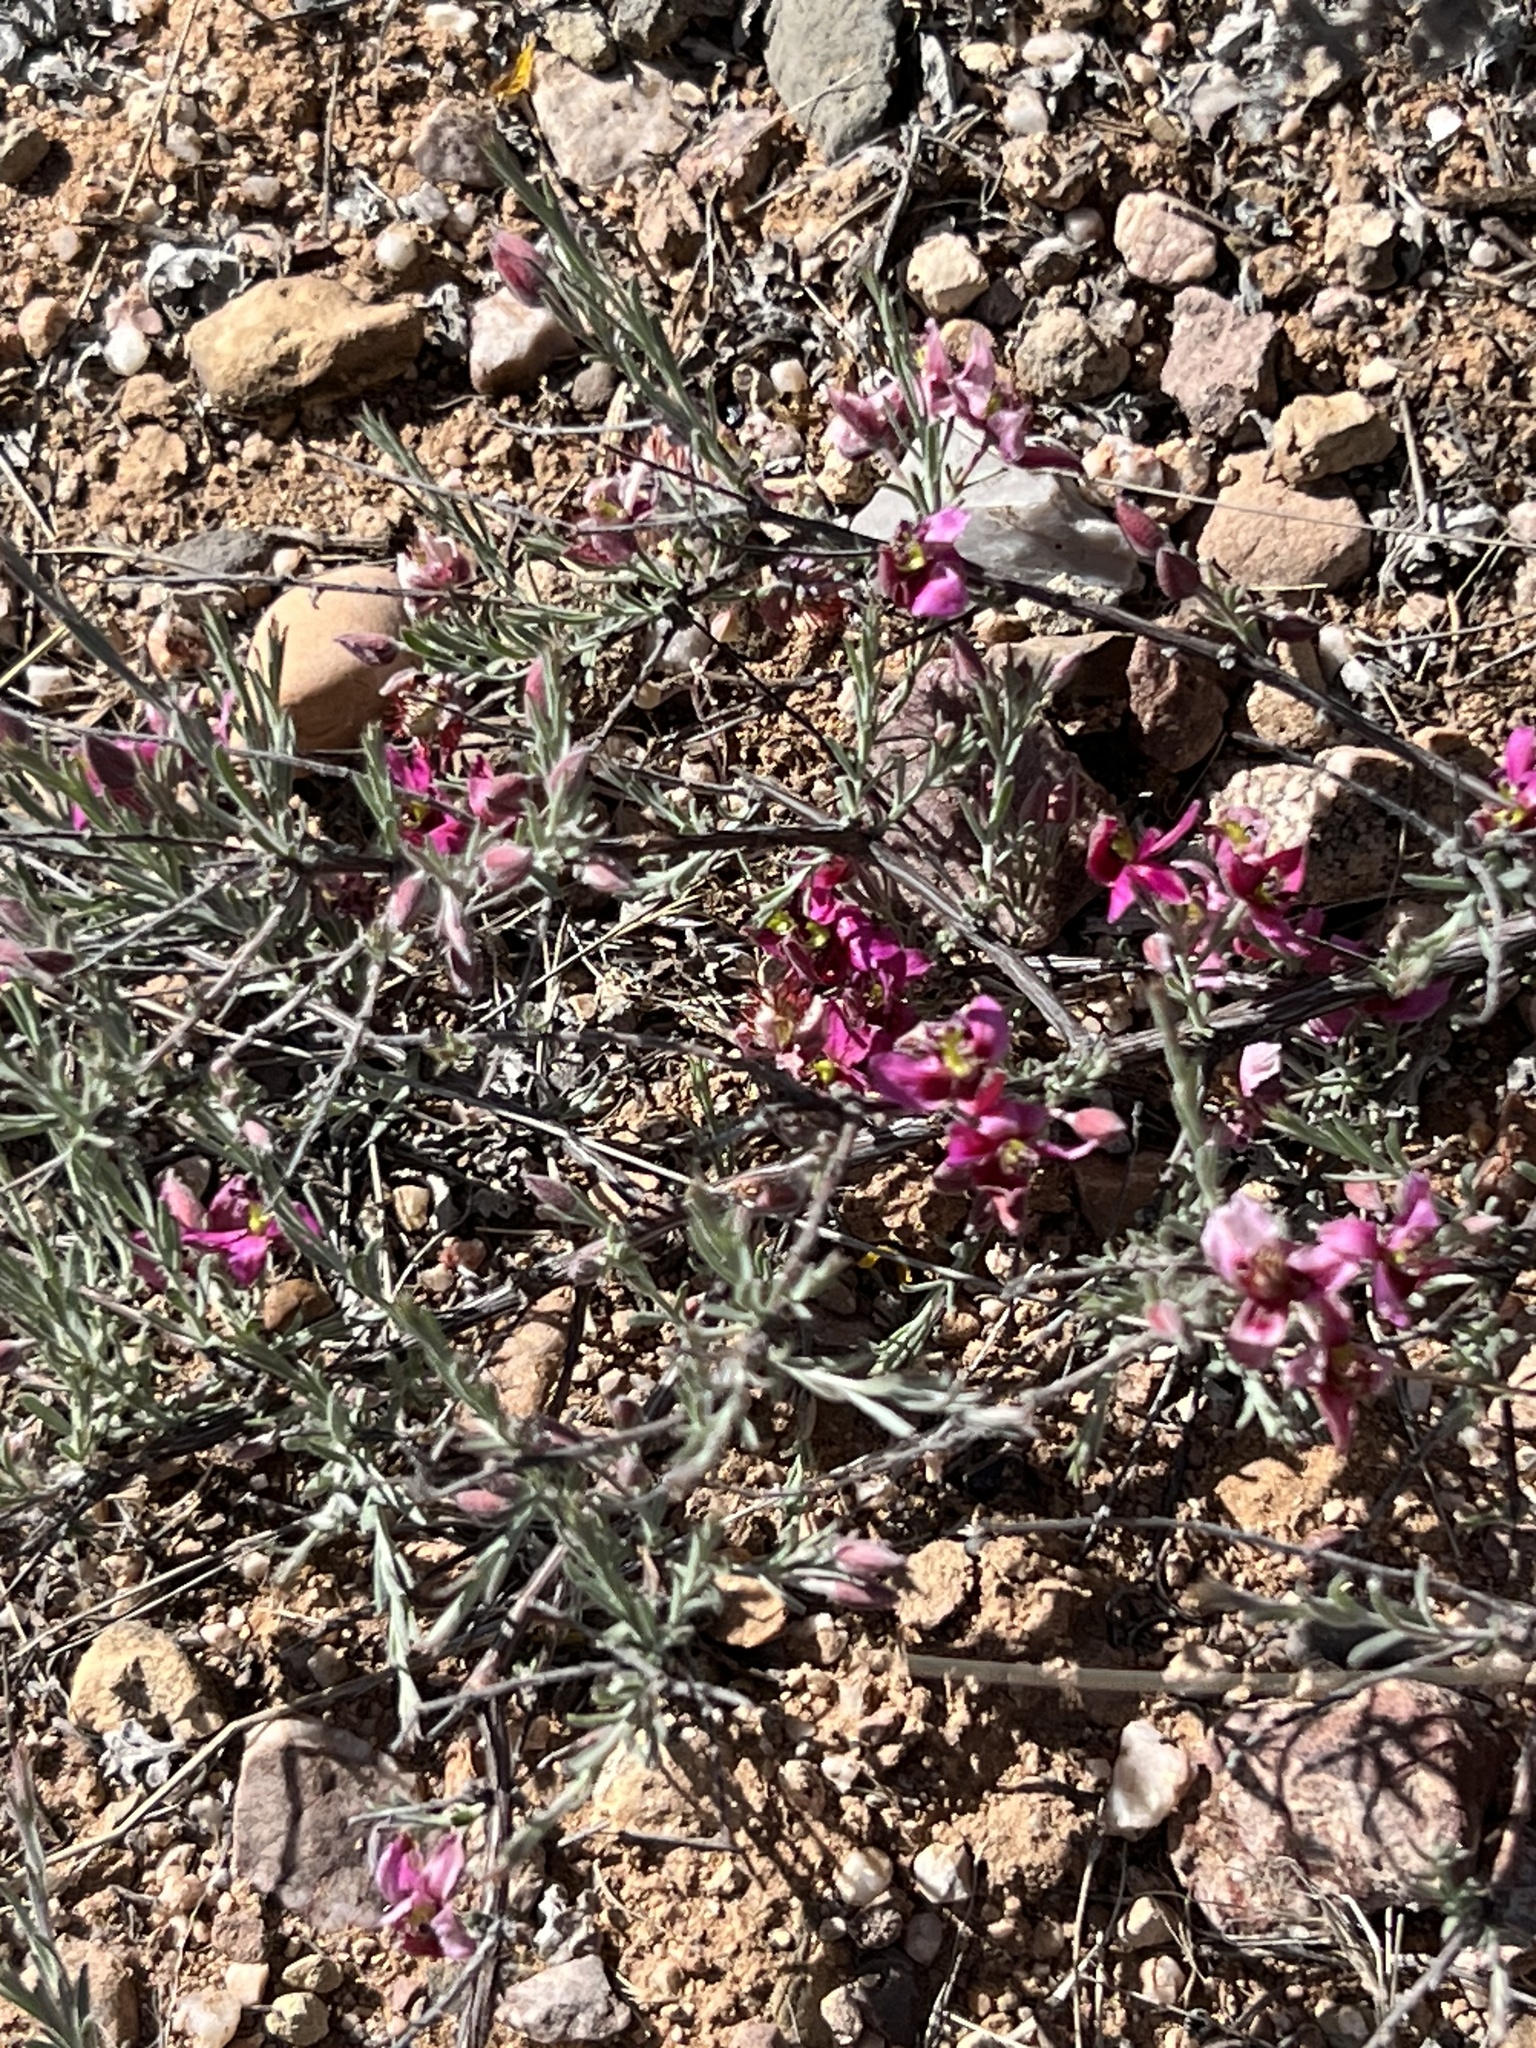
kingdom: Plantae
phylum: Tracheophyta
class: Magnoliopsida
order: Zygophyllales
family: Krameriaceae
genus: Krameria
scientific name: Krameria bicolor
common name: White ratany
